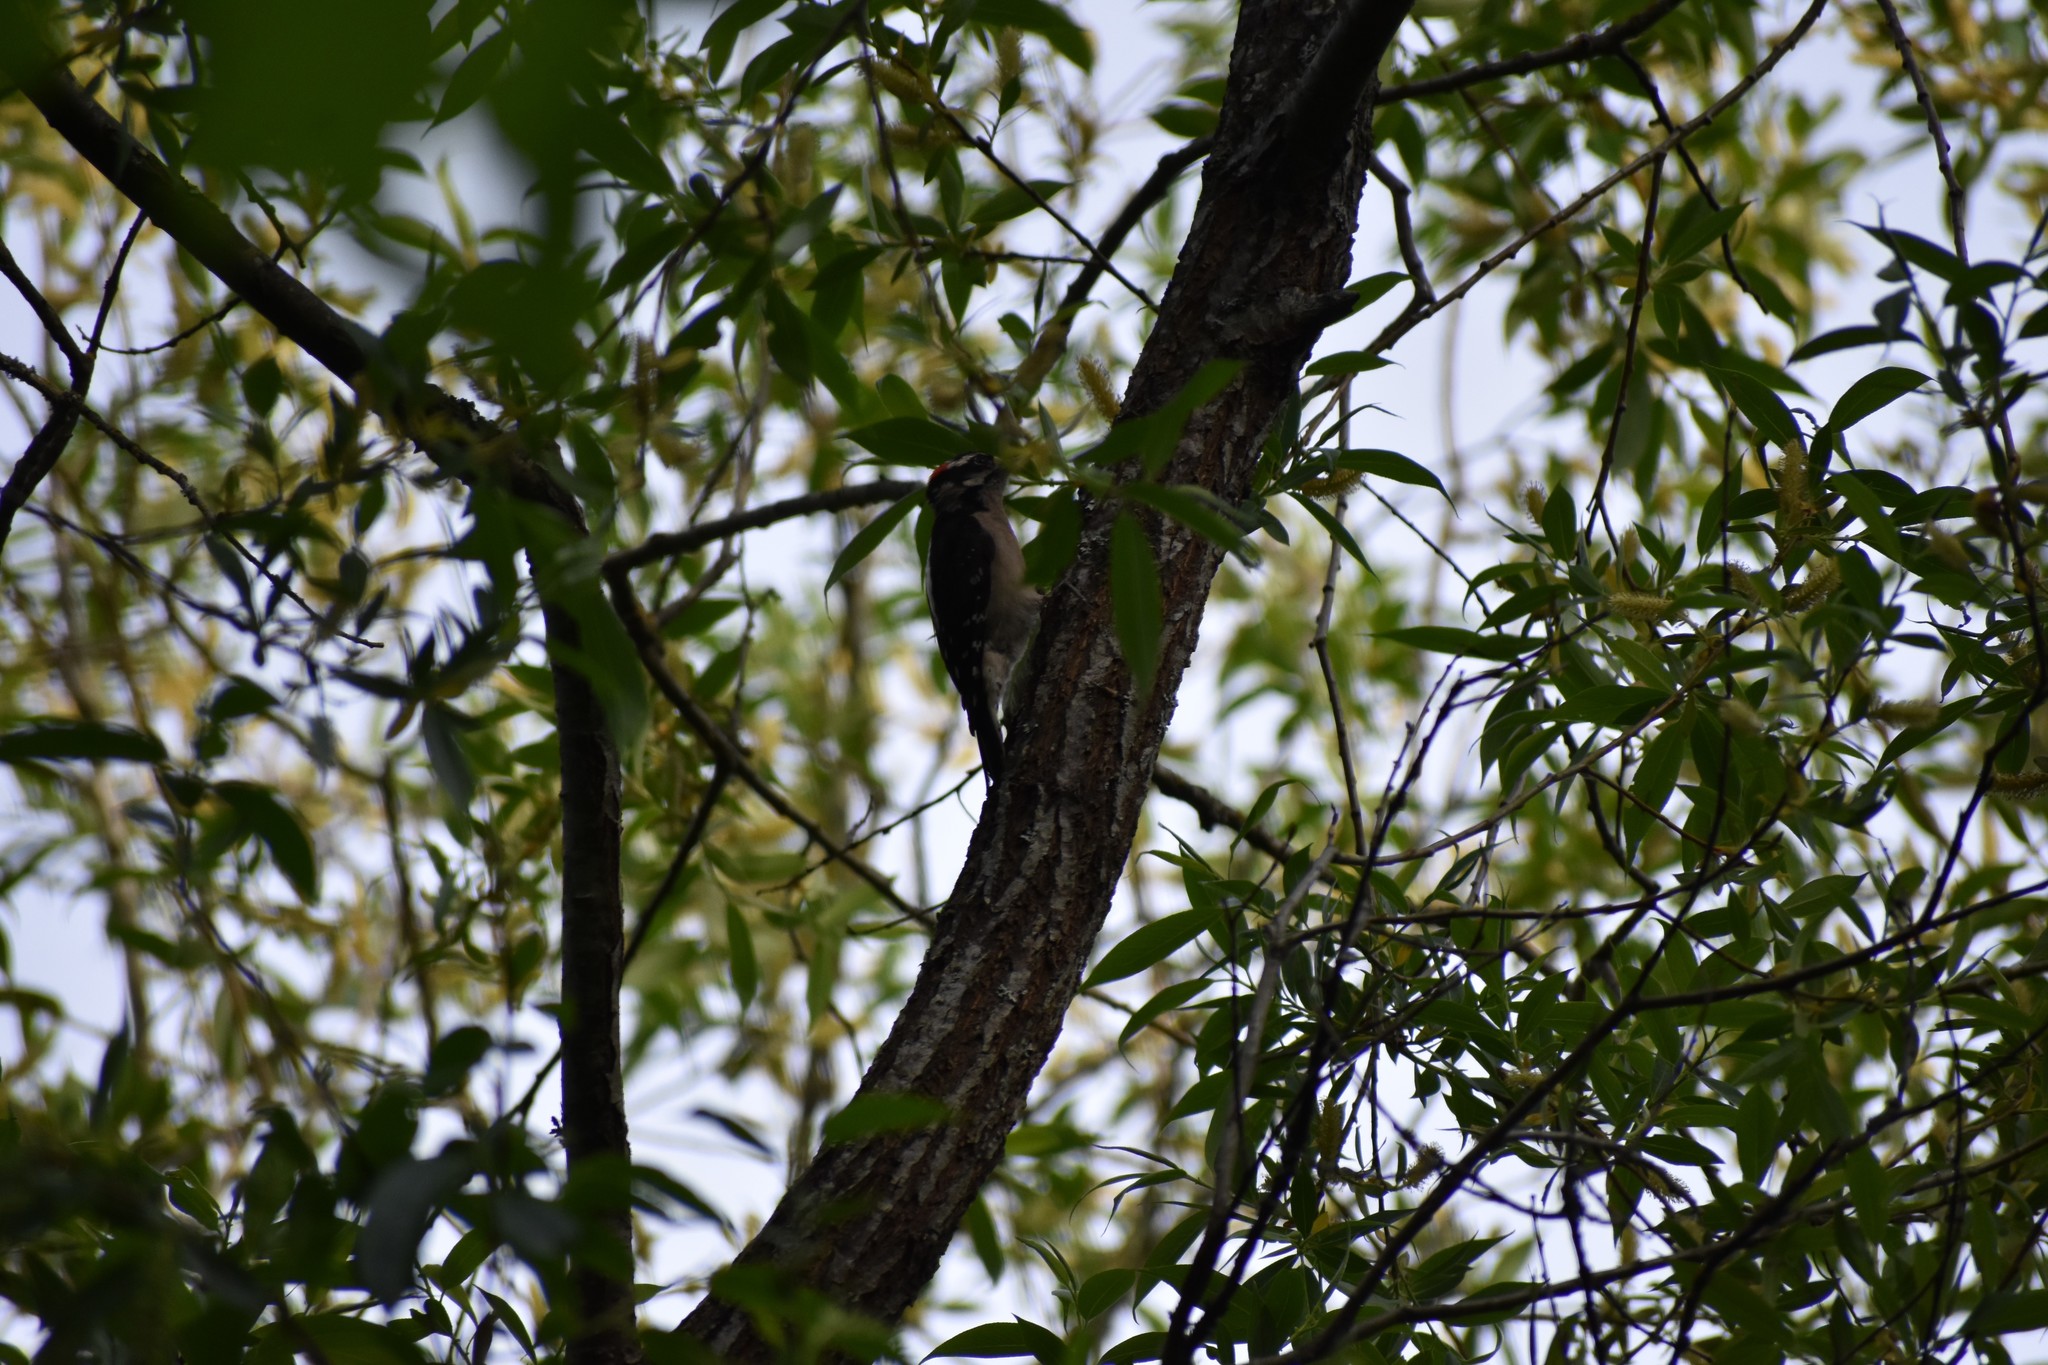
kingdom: Animalia
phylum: Chordata
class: Aves
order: Piciformes
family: Picidae
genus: Dryobates
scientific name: Dryobates pubescens
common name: Downy woodpecker
